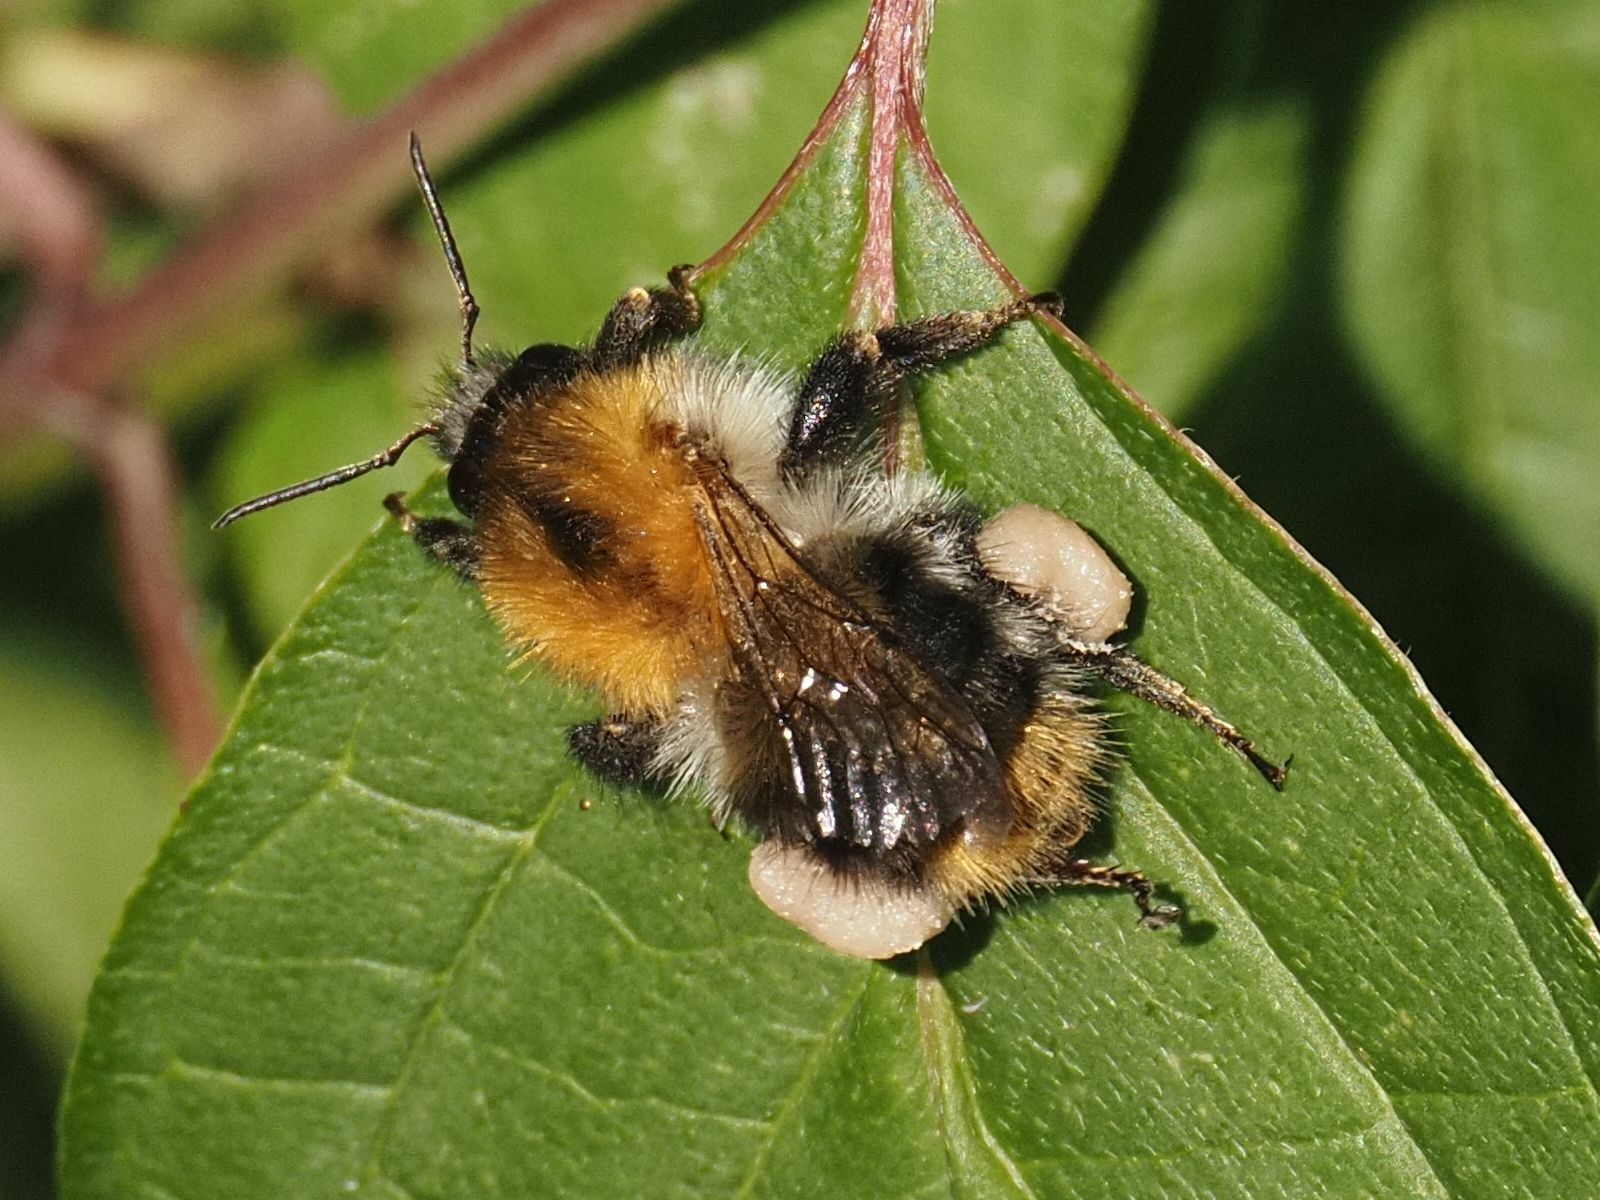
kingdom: Animalia
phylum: Arthropoda
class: Insecta
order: Hymenoptera
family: Apidae
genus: Bombus
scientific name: Bombus pascuorum
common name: Common carder bee
